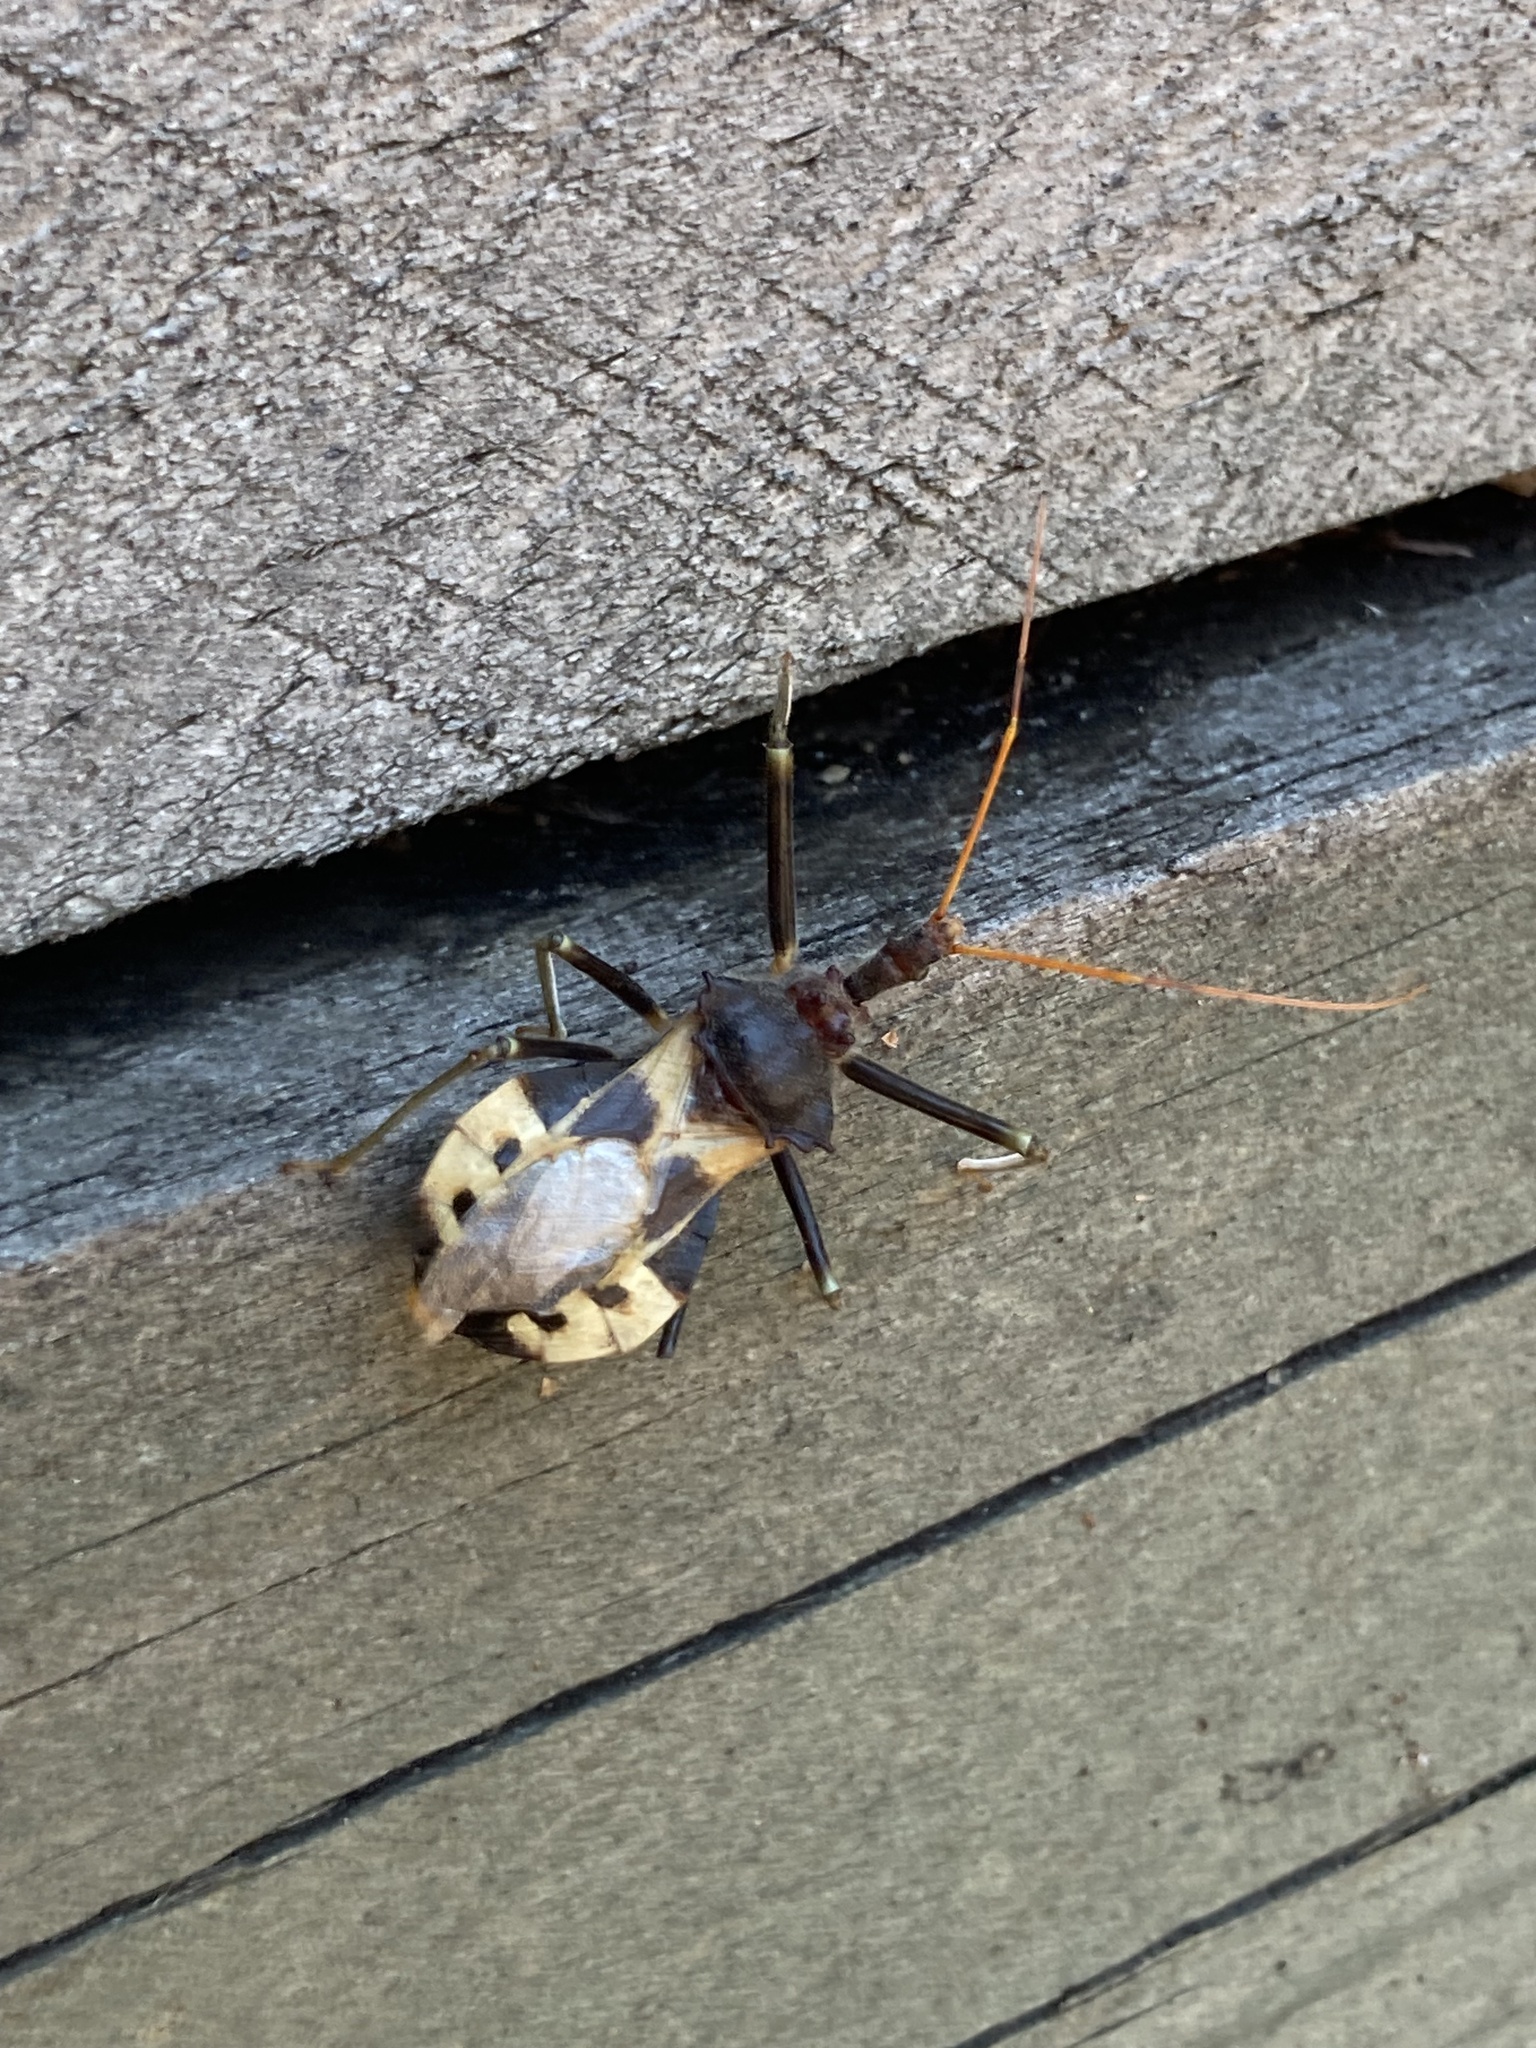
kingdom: Animalia
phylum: Arthropoda
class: Insecta
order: Hemiptera
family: Reduviidae
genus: Pristhesancus
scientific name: Pristhesancus plagipennis
